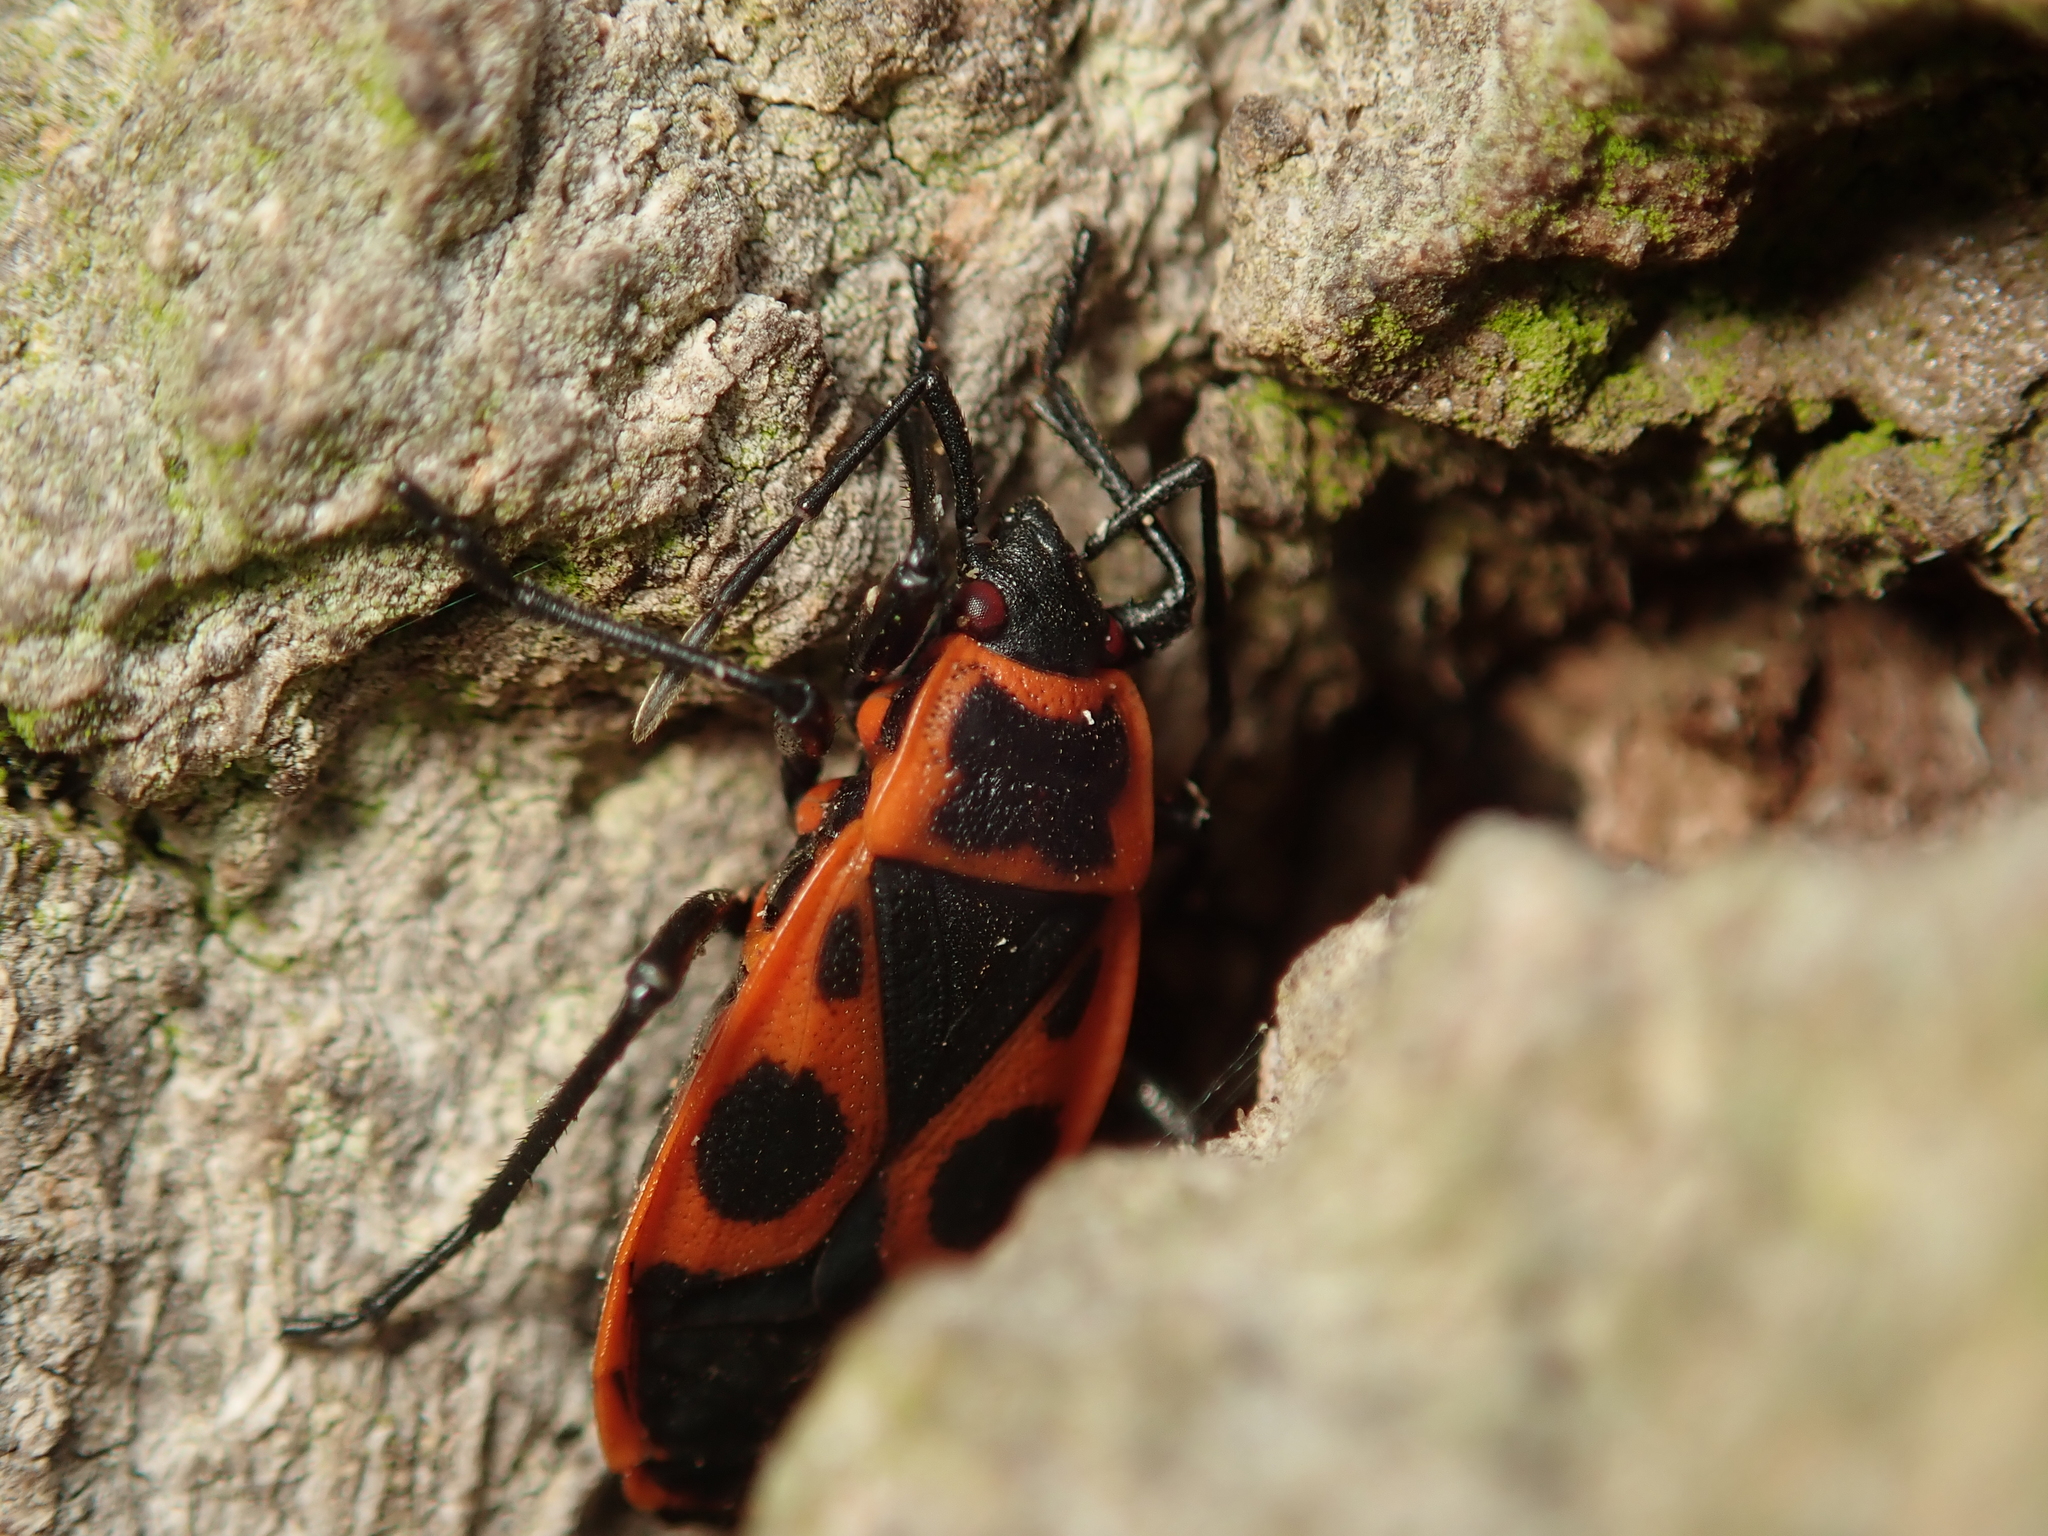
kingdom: Animalia
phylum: Arthropoda
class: Insecta
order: Hemiptera
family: Pyrrhocoridae
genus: Pyrrhocoris
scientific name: Pyrrhocoris apterus
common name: Firebug
